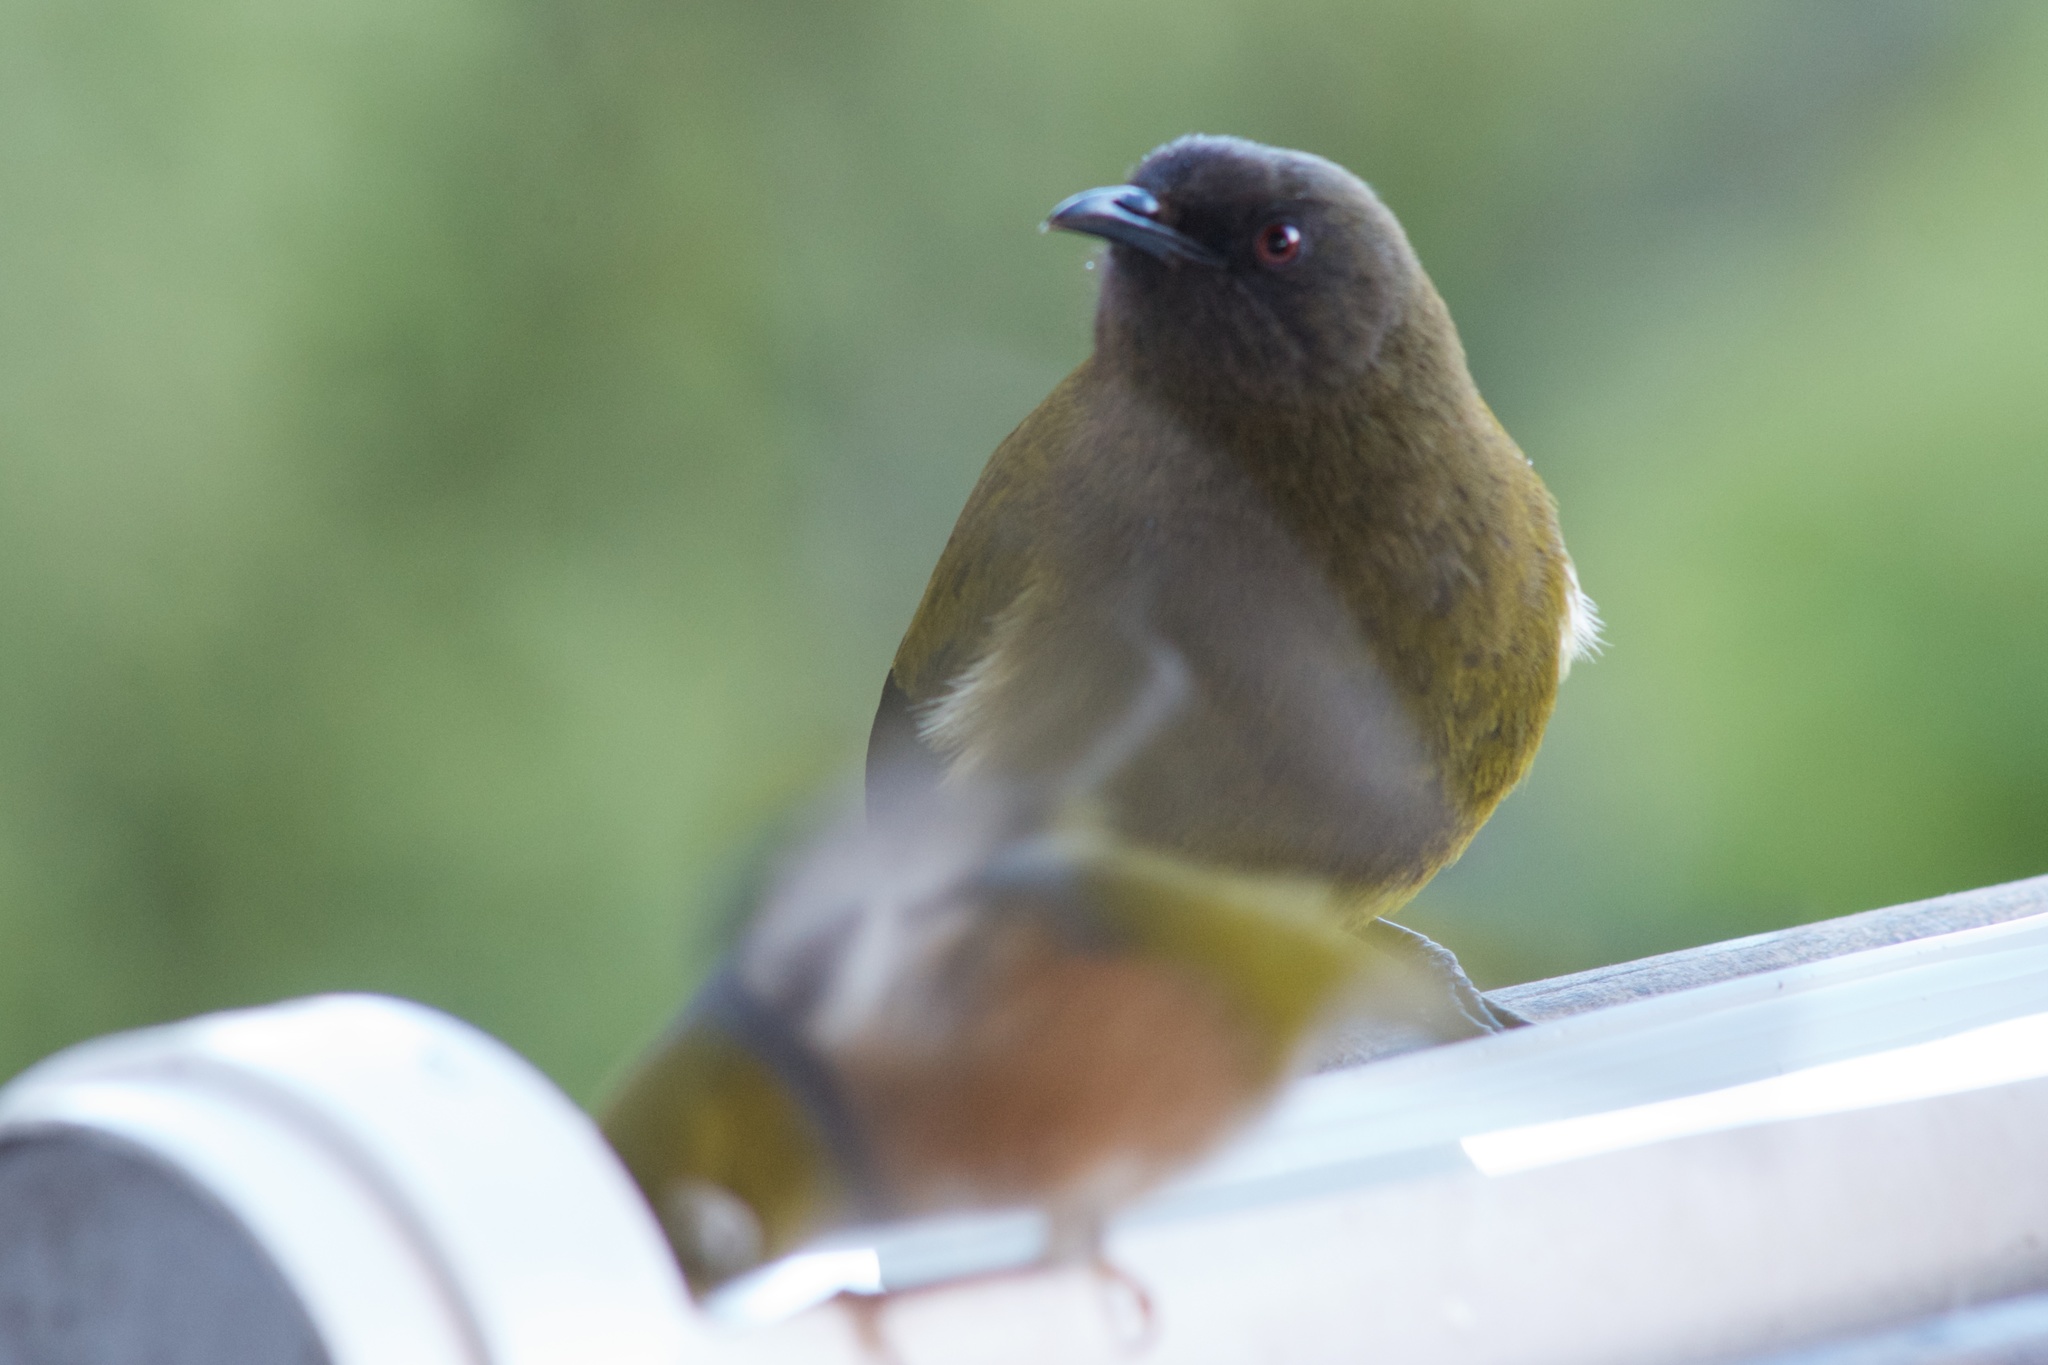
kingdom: Animalia
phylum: Chordata
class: Aves
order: Passeriformes
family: Meliphagidae
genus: Anthornis
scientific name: Anthornis melanura
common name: New zealand bellbird
